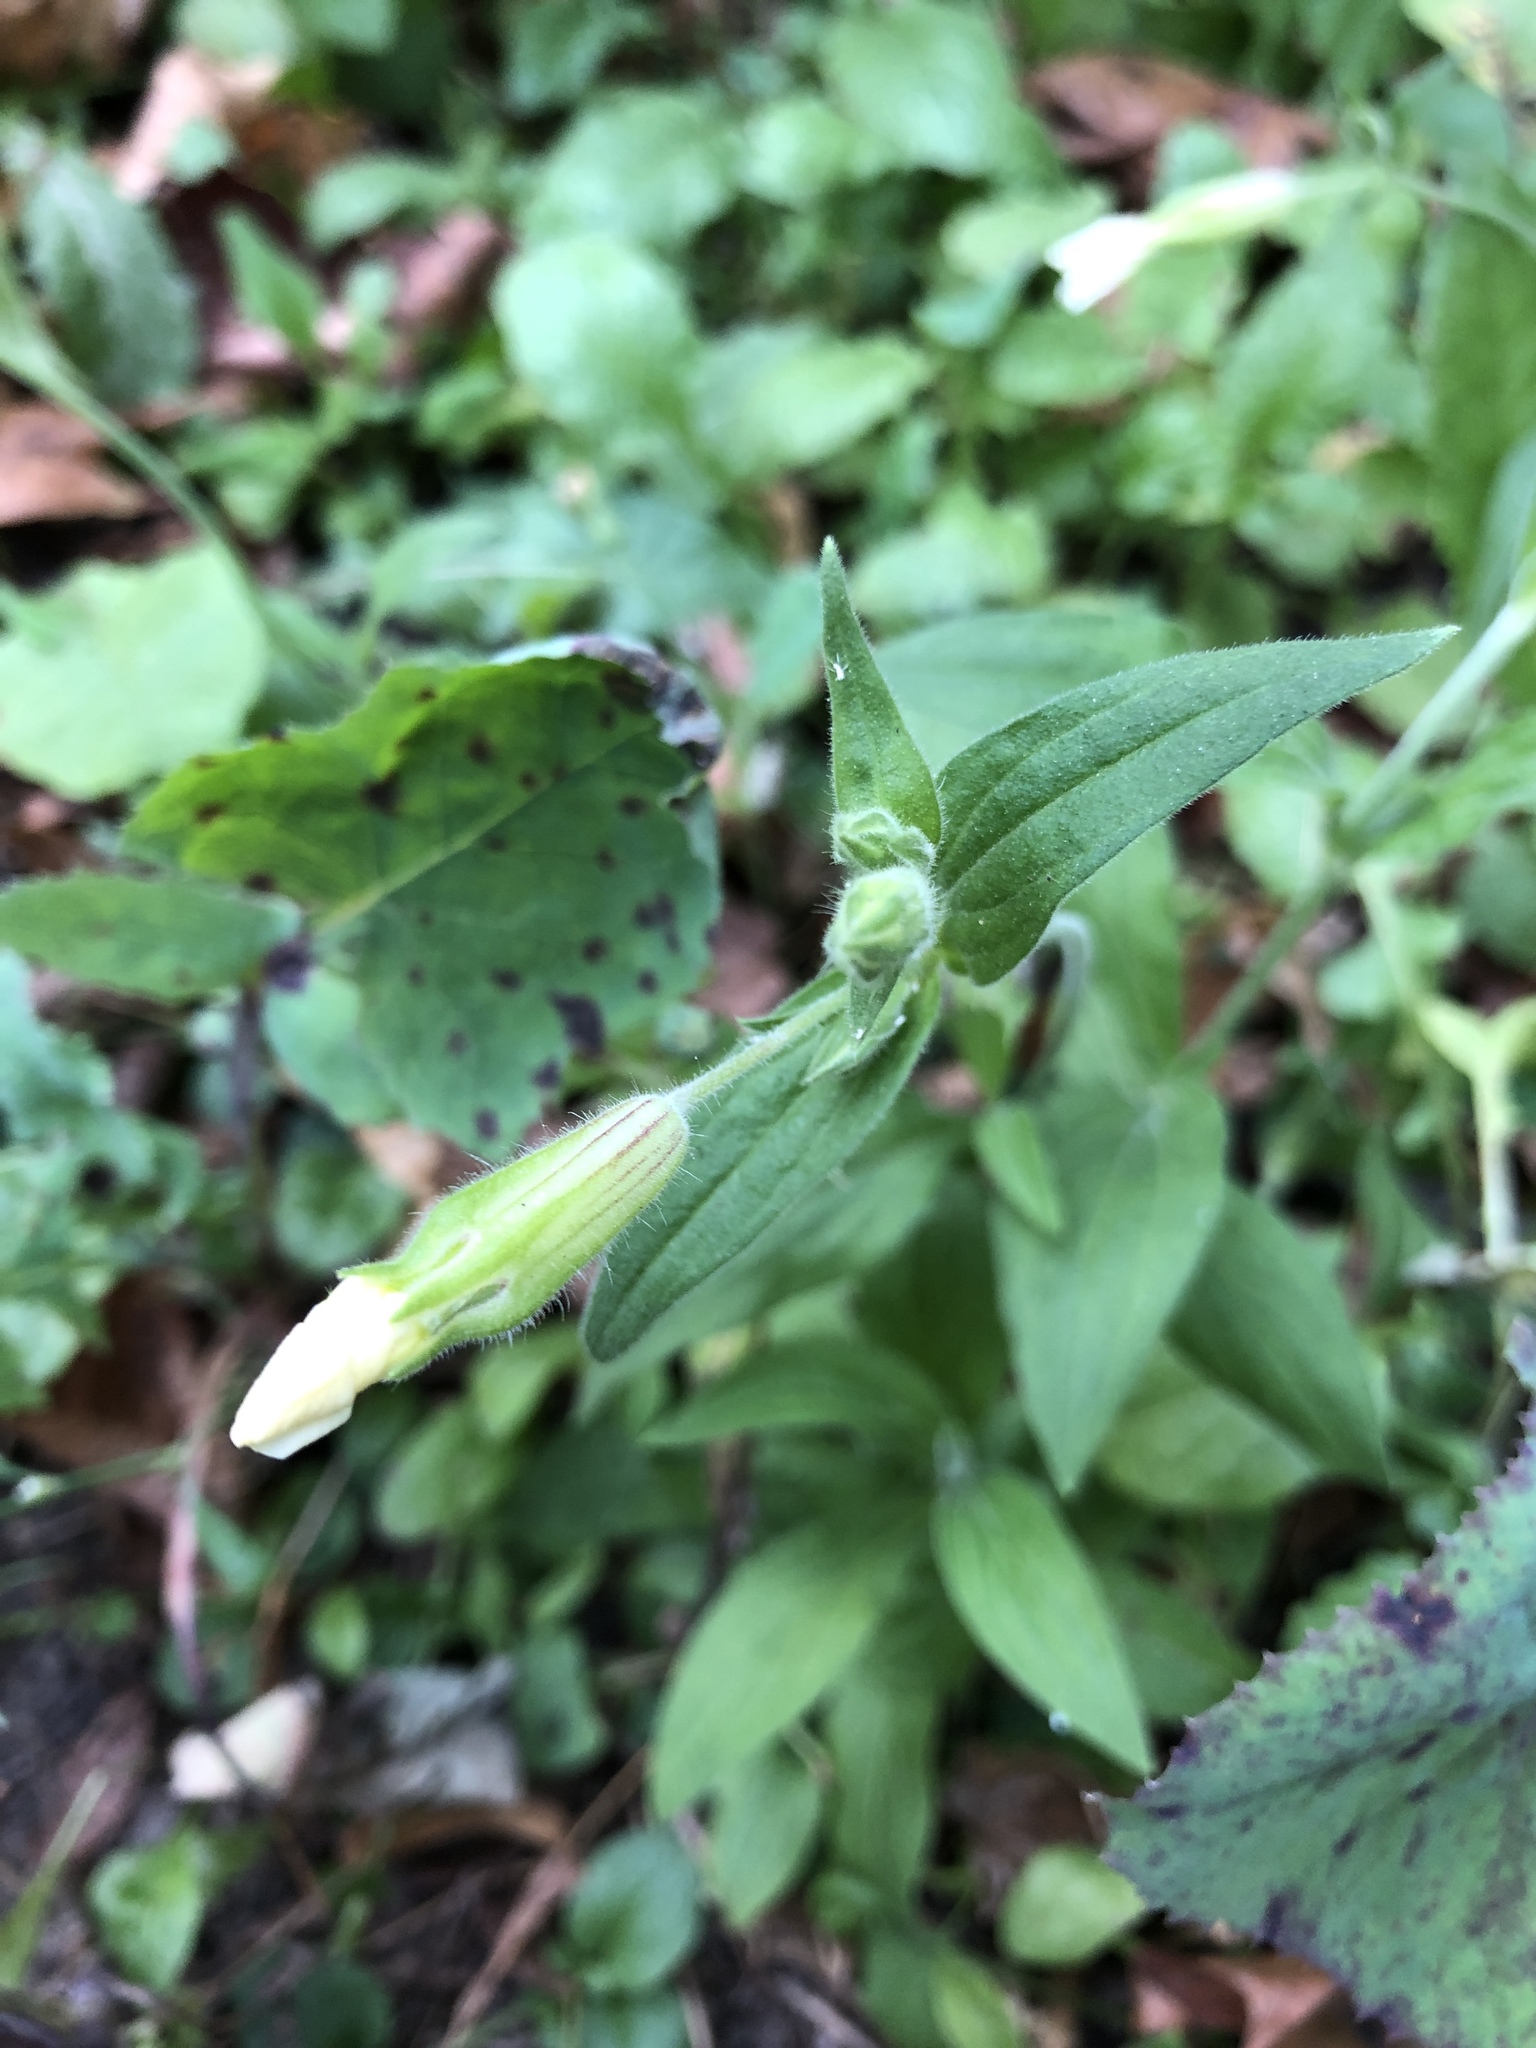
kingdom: Plantae
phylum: Tracheophyta
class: Magnoliopsida
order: Caryophyllales
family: Caryophyllaceae
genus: Silene
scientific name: Silene latifolia
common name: White campion
